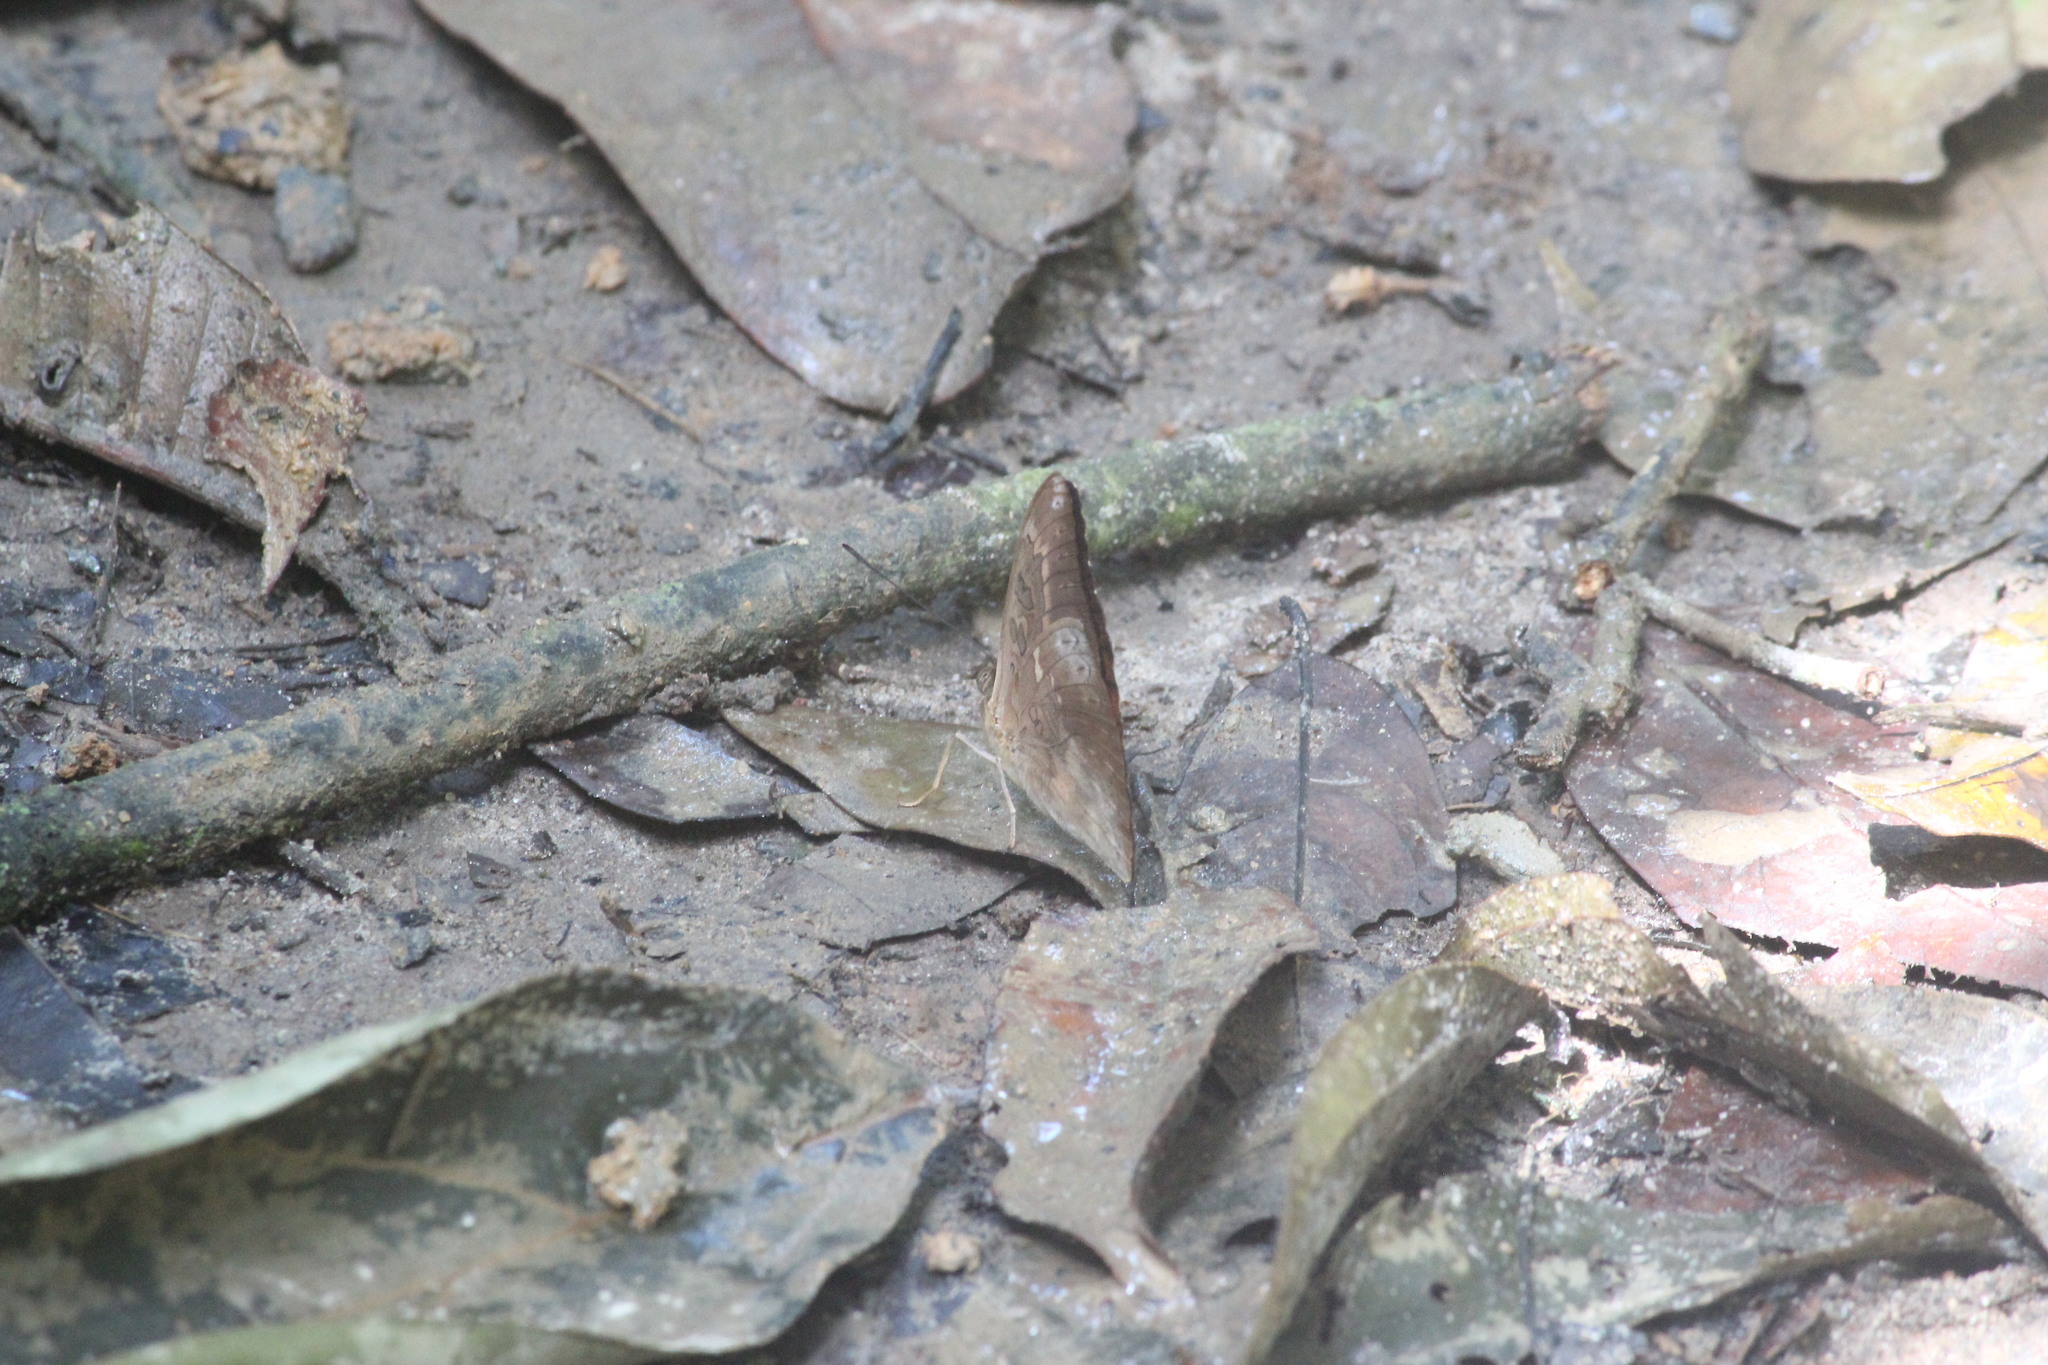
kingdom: Animalia
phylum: Arthropoda
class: Insecta
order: Lepidoptera
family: Nymphalidae
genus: Bebearia
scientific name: Bebearia
